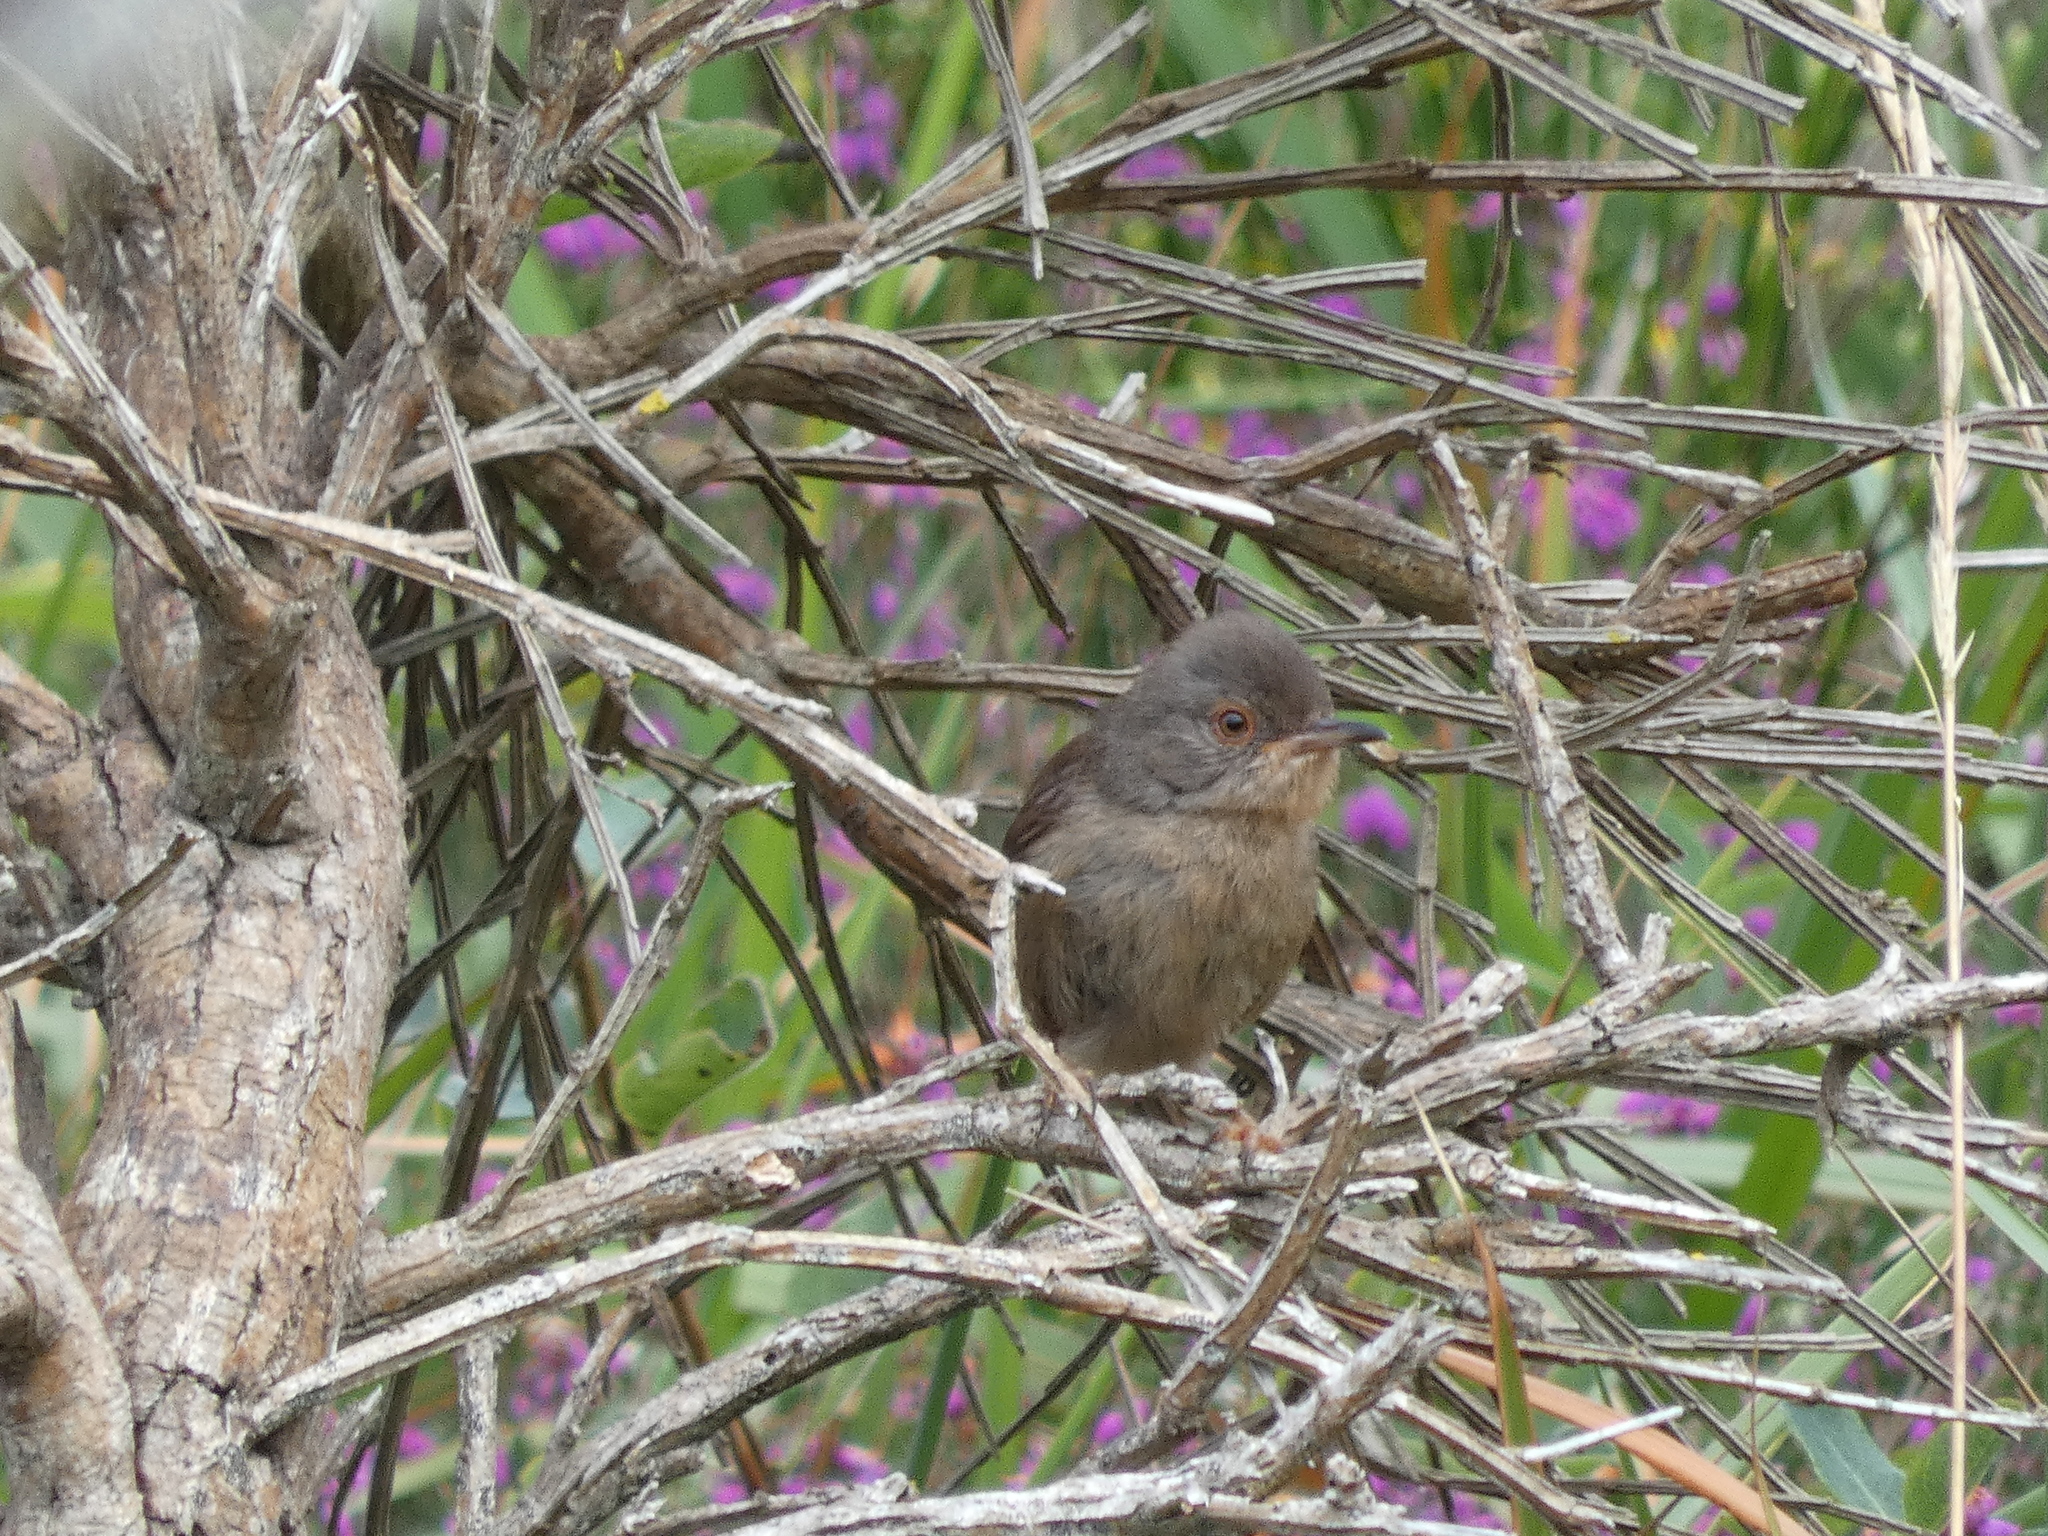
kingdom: Animalia
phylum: Chordata
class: Aves
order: Passeriformes
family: Sylviidae
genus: Sylvia
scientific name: Sylvia undata
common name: Dartford warbler
